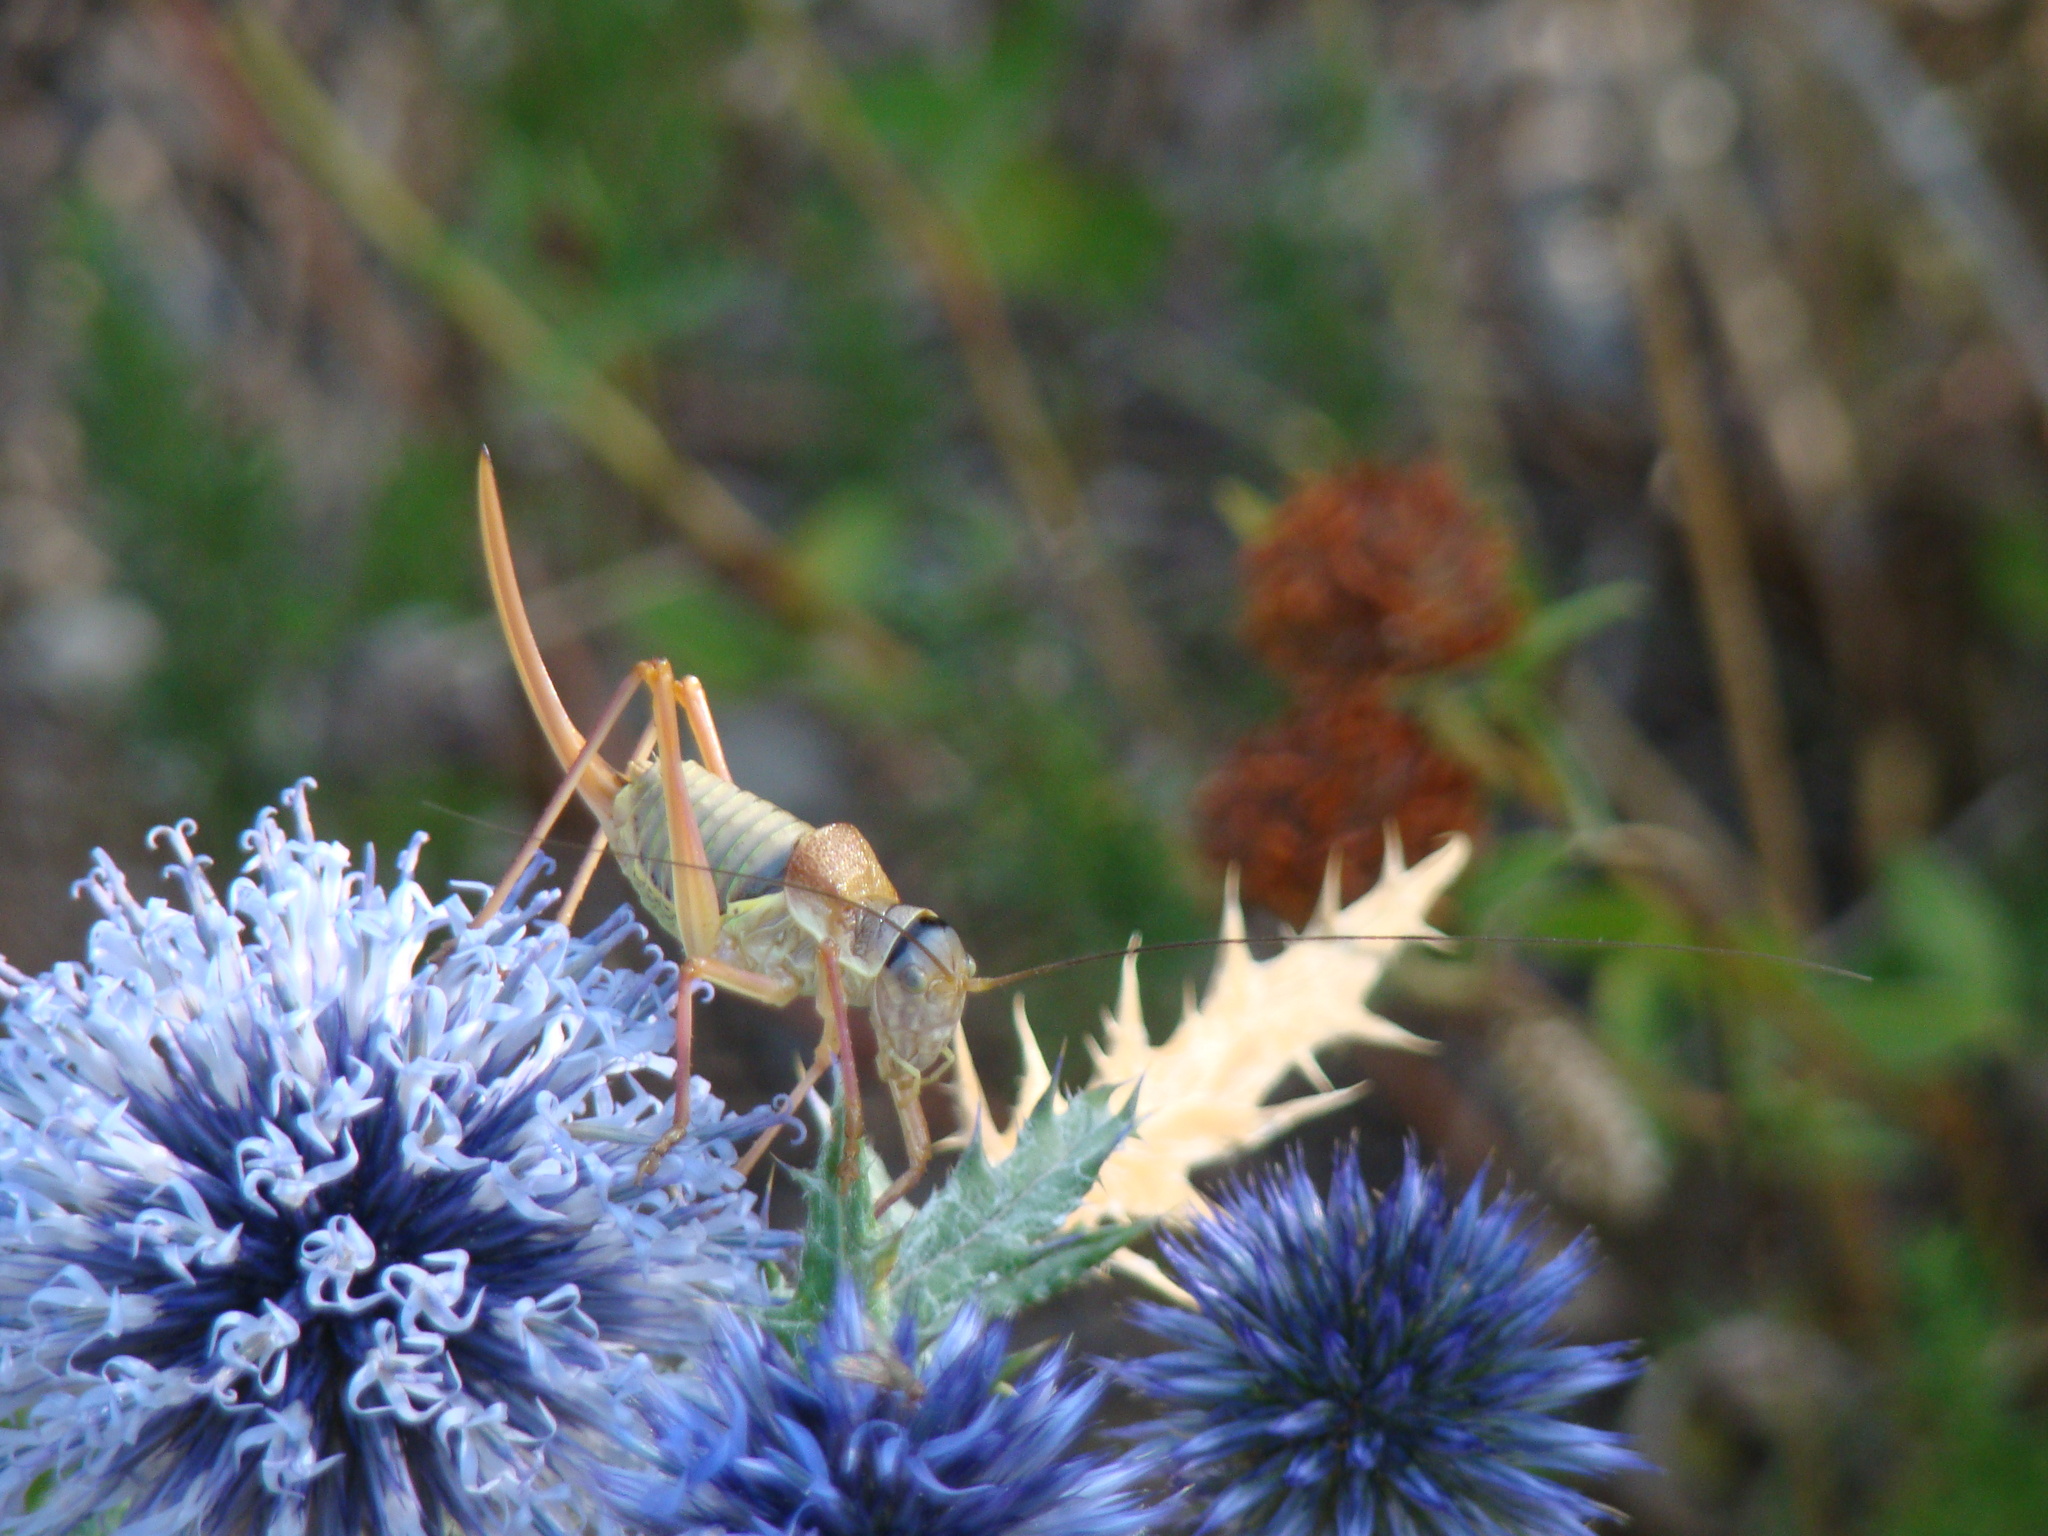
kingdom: Animalia
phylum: Arthropoda
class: Insecta
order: Orthoptera
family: Tettigoniidae
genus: Ephippiger
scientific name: Ephippiger diurnus
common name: Western saddle bush-cricket
